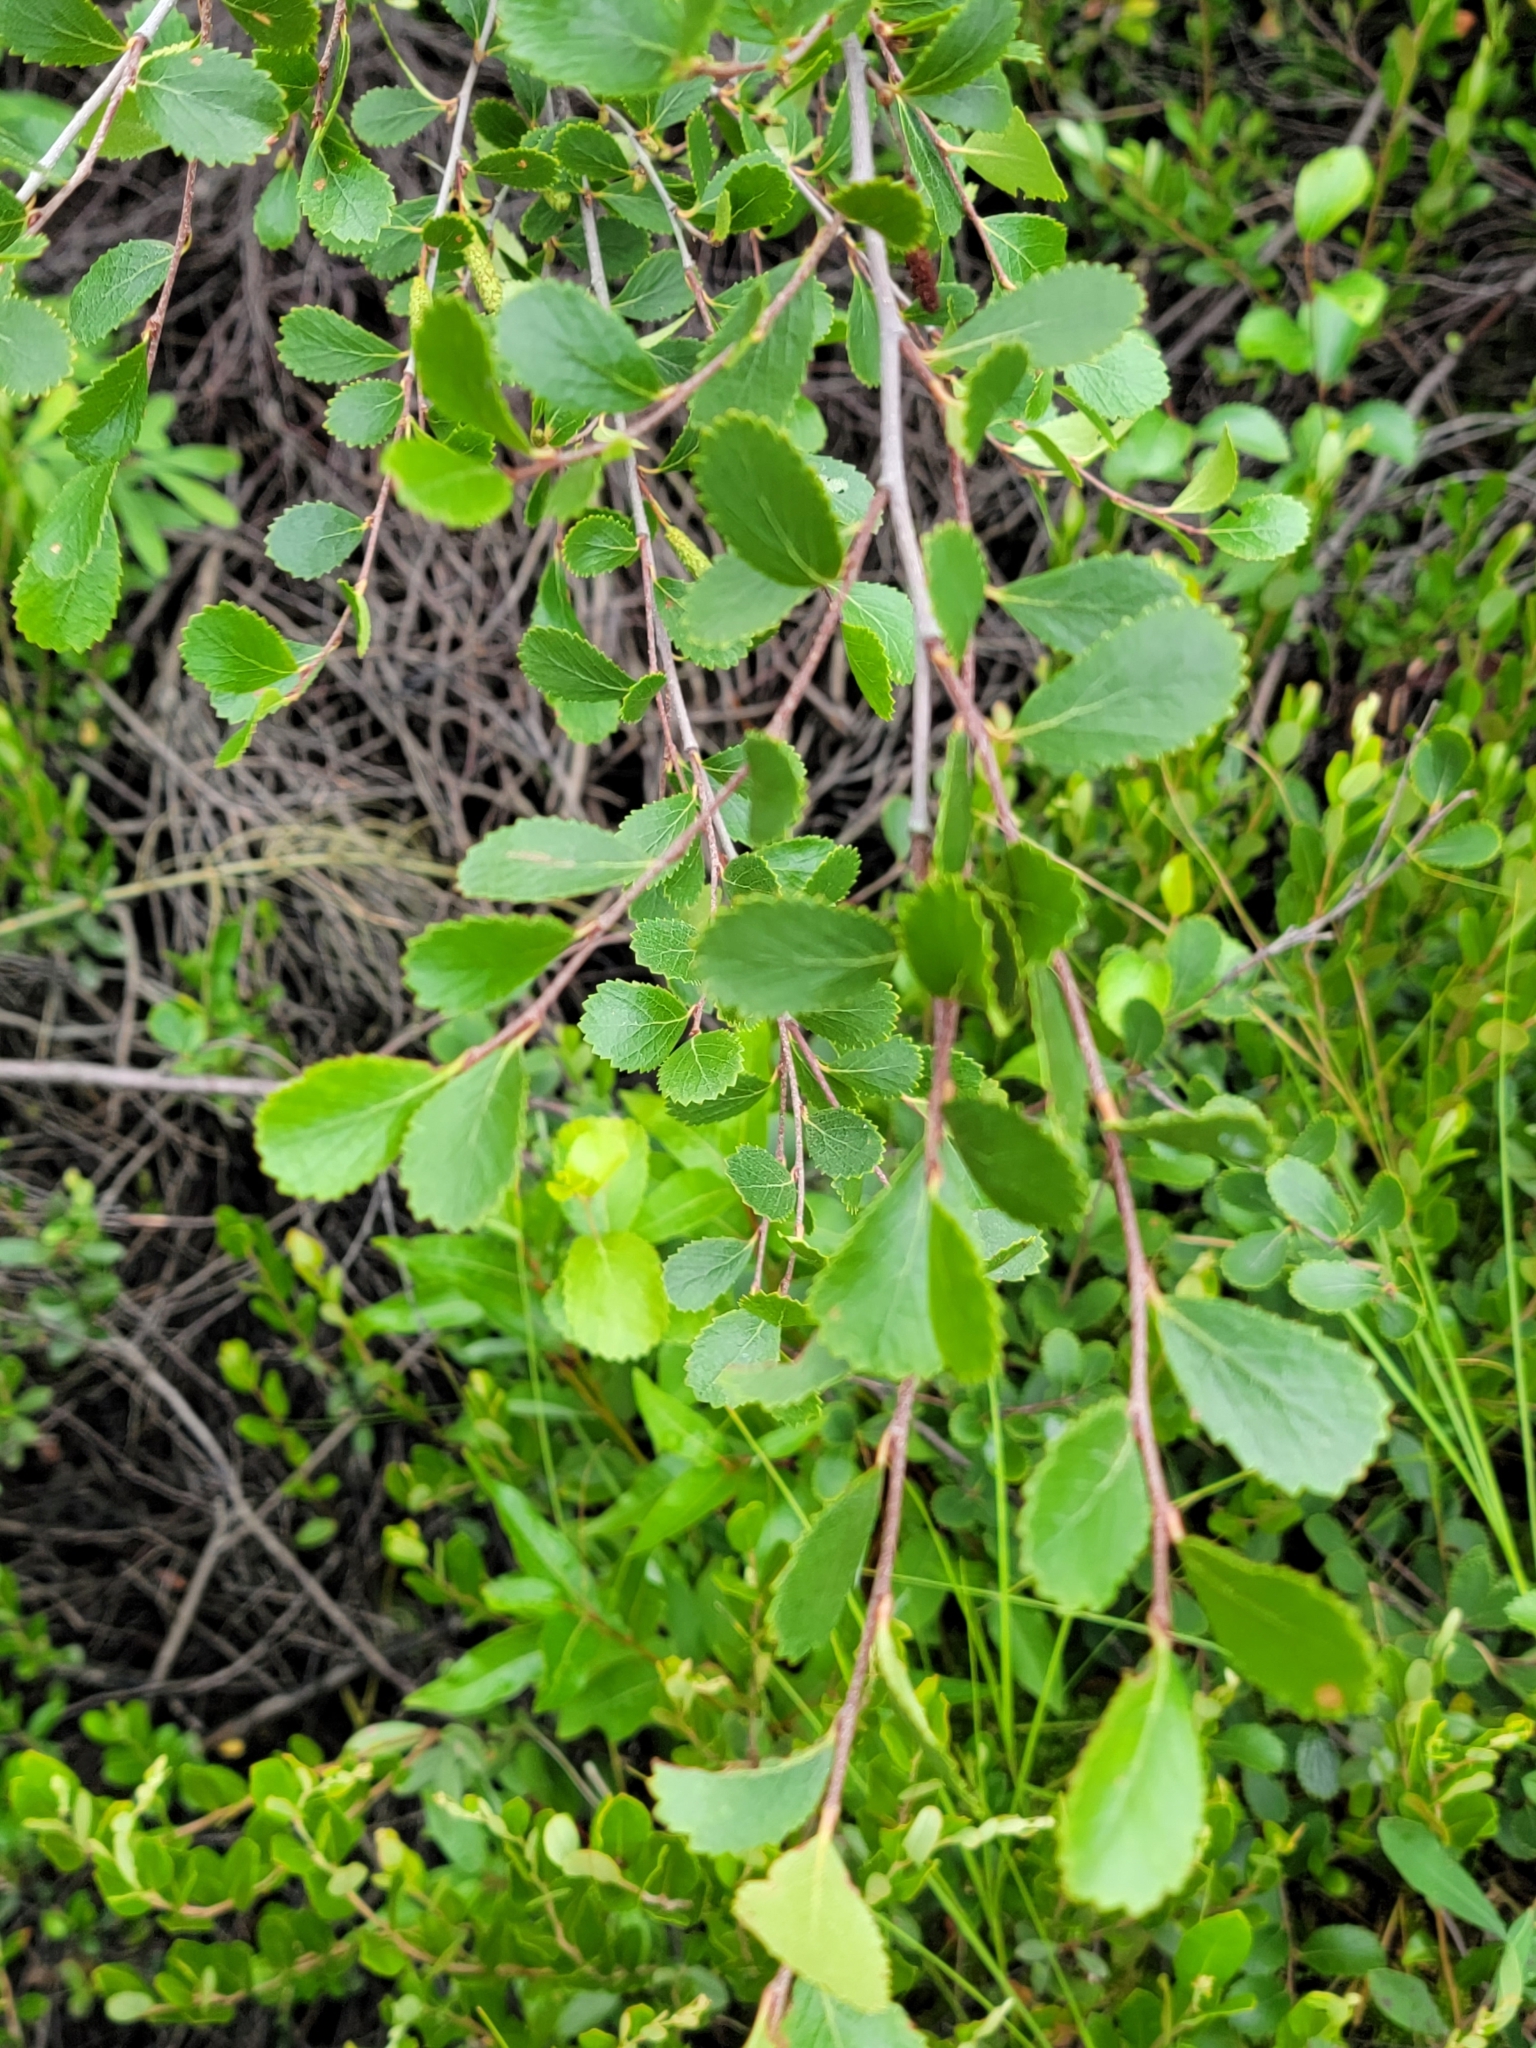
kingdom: Plantae
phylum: Tracheophyta
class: Magnoliopsida
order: Fagales
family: Betulaceae
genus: Betula
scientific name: Betula pumila
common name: Bog birch
